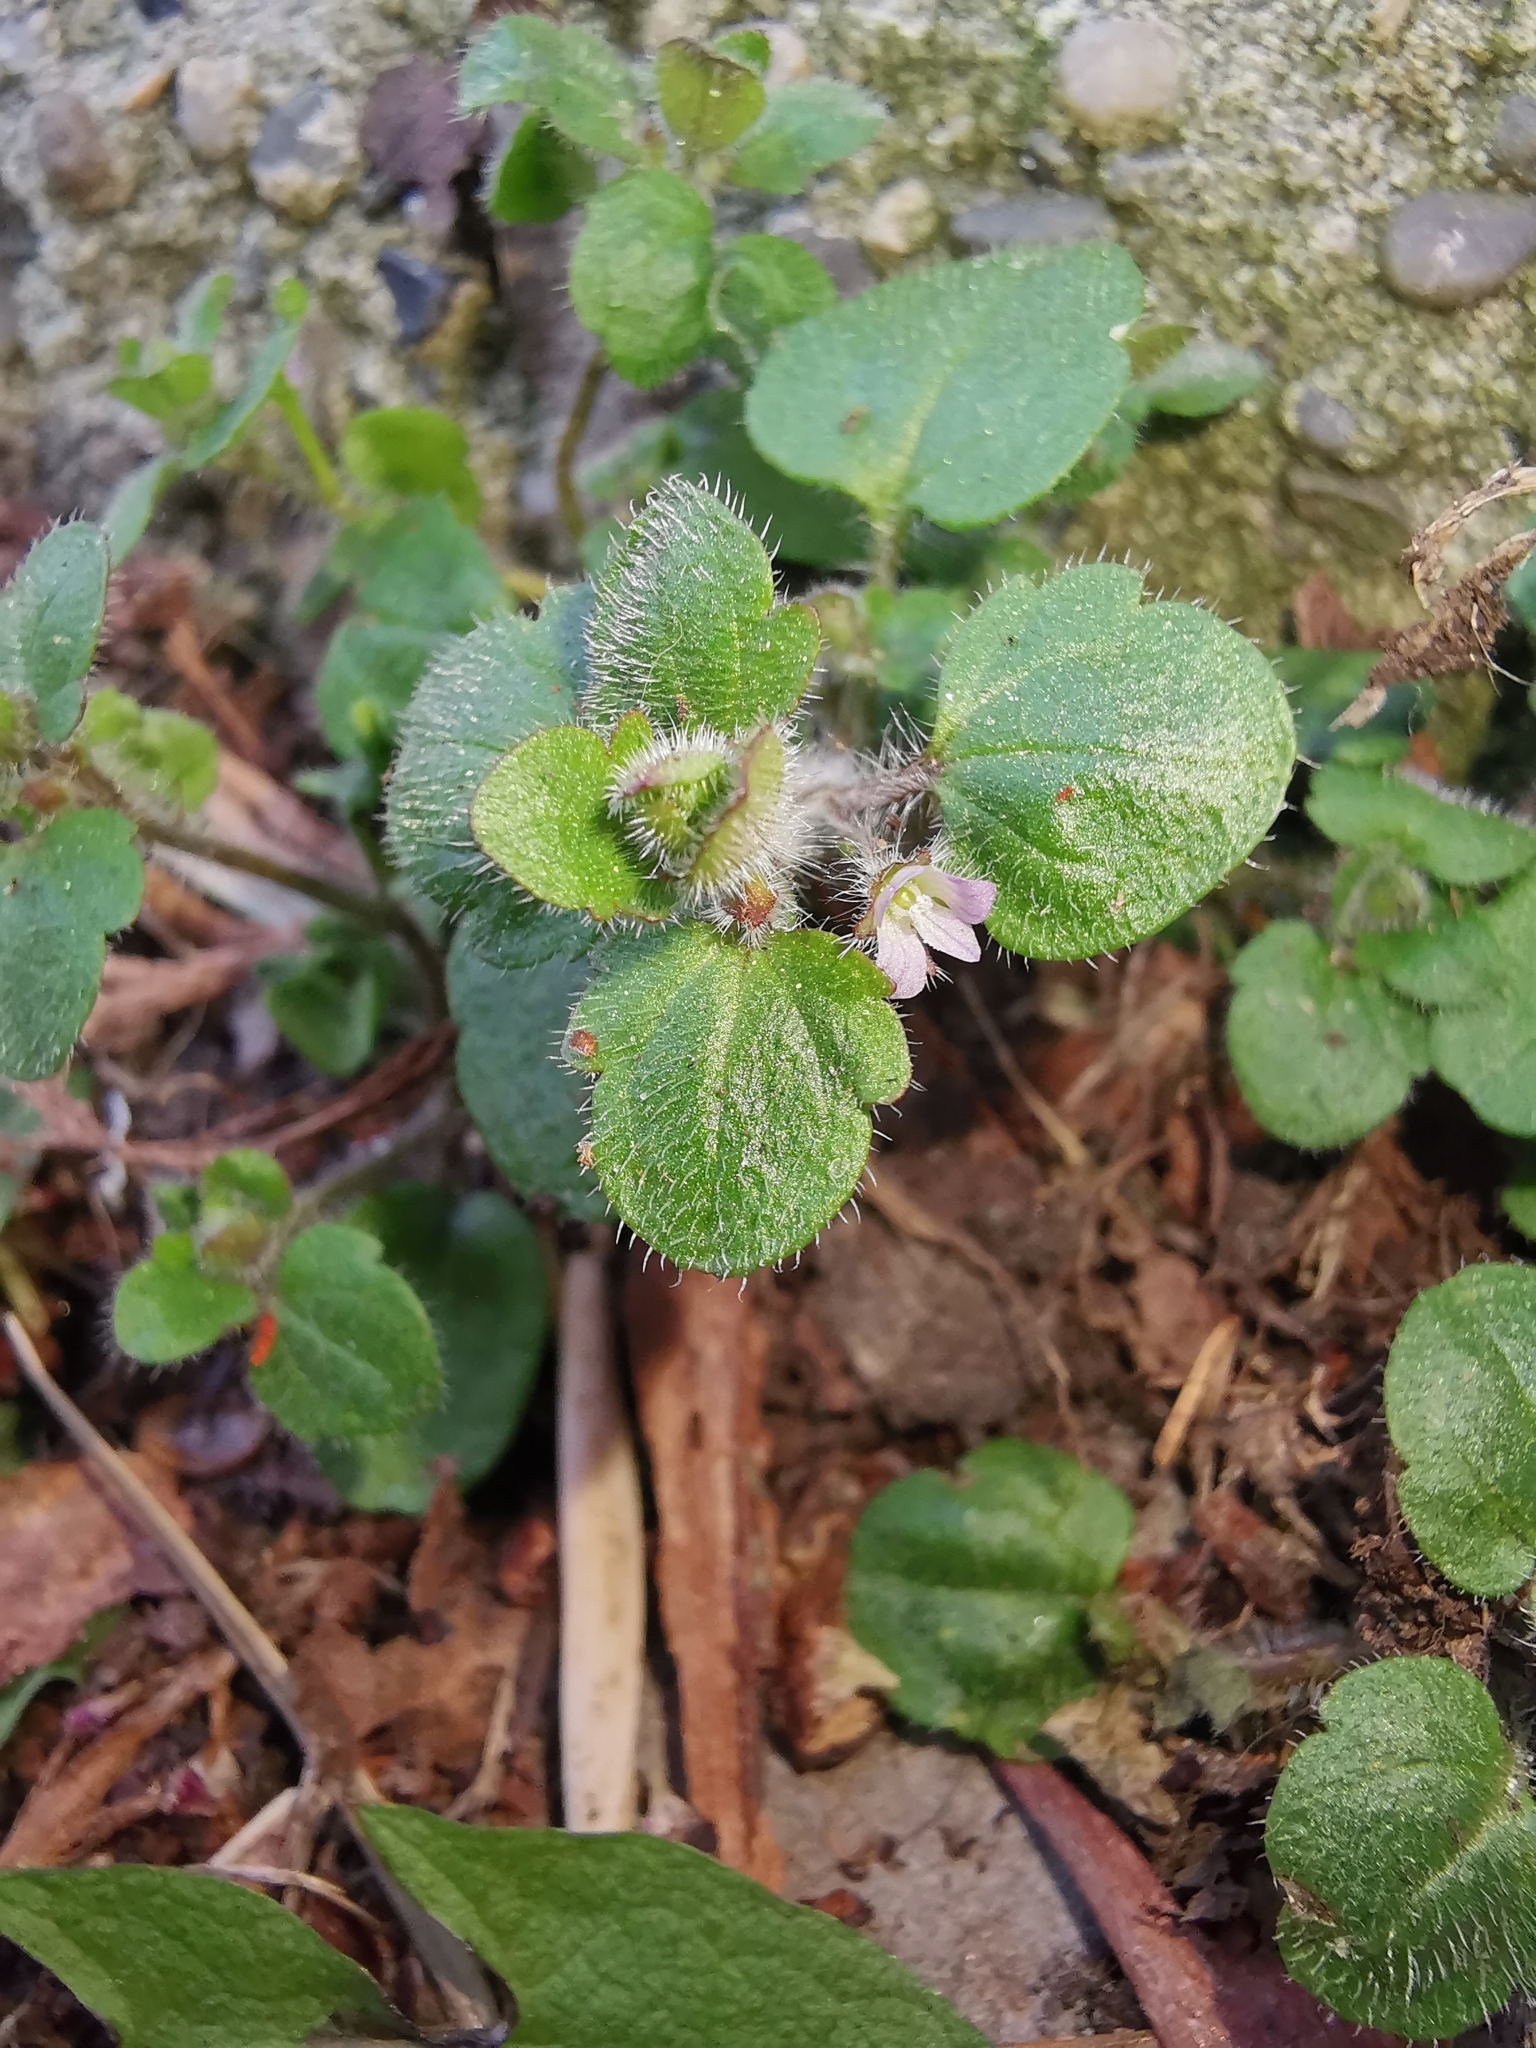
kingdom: Plantae
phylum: Tracheophyta
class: Magnoliopsida
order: Lamiales
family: Plantaginaceae
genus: Veronica
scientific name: Veronica sublobata
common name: False ivy-leaved speedwell
